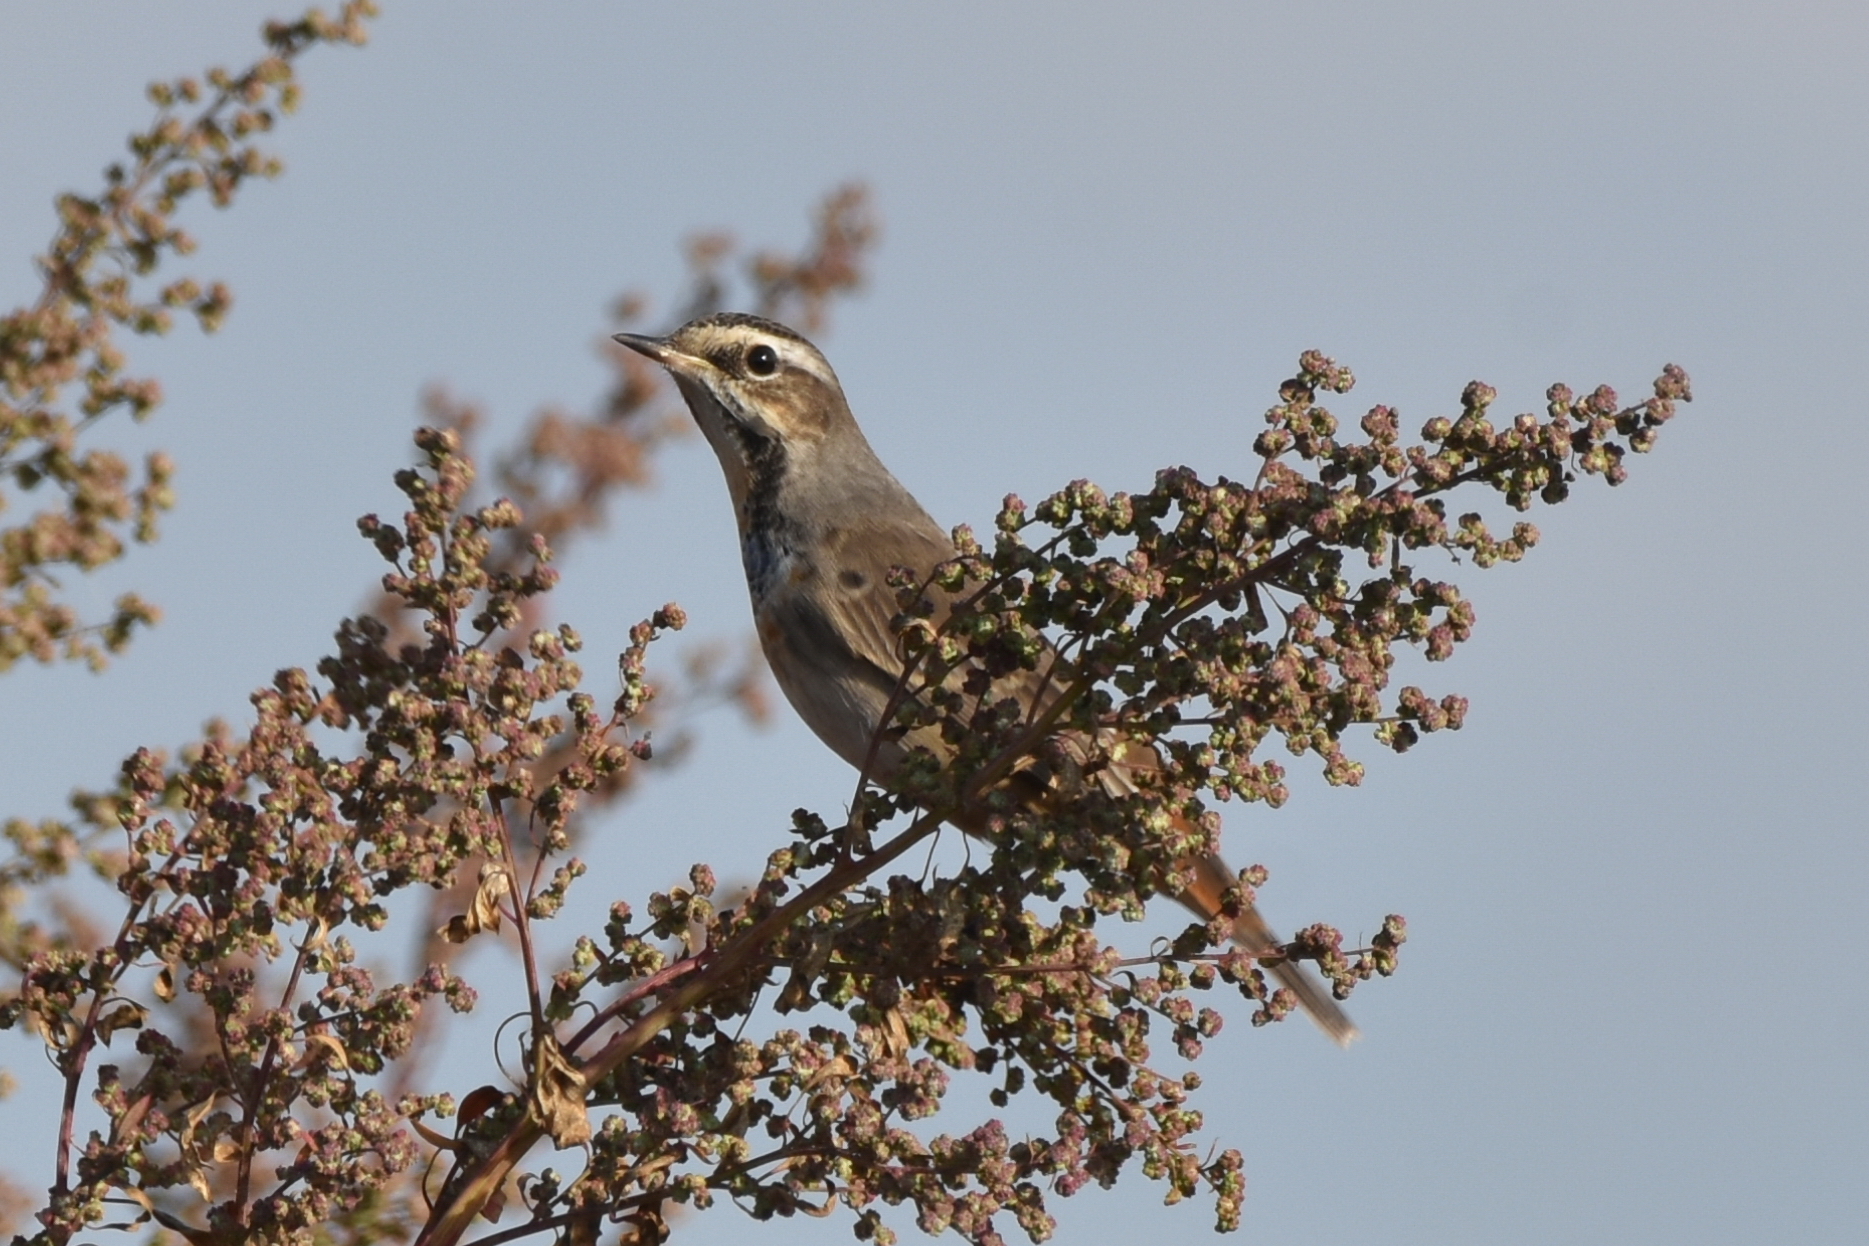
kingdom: Animalia
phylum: Chordata
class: Aves
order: Passeriformes
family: Muscicapidae
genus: Luscinia
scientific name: Luscinia svecica
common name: Bluethroat
